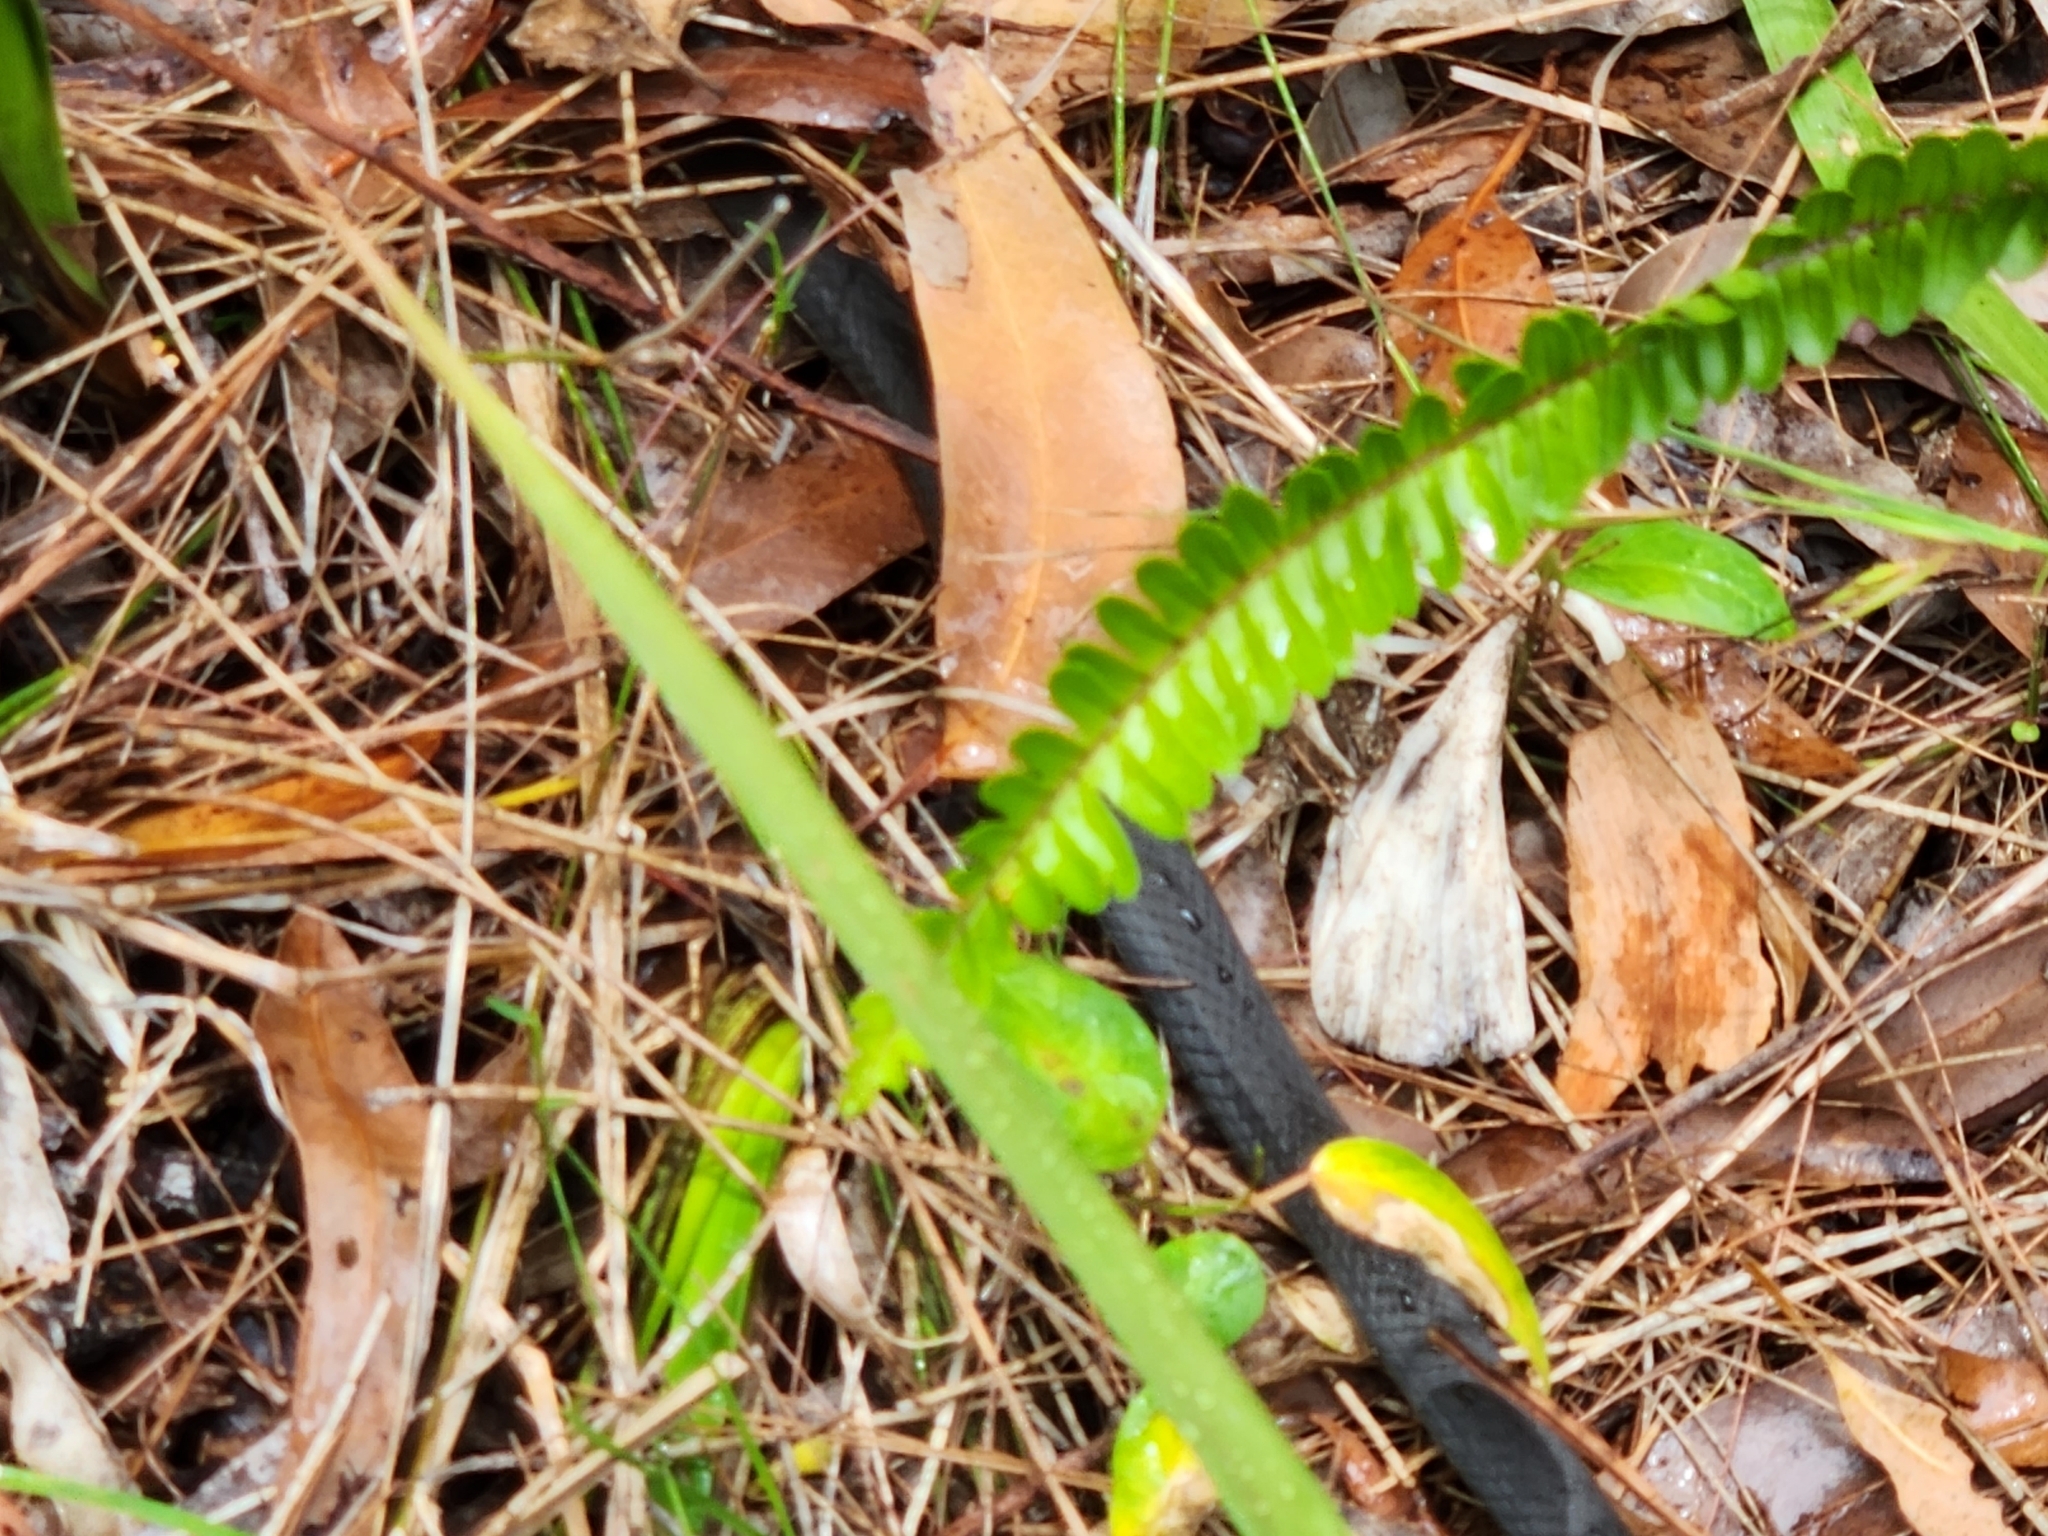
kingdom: Animalia
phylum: Chordata
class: Squamata
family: Elapidae
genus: Hemiaspis
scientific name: Hemiaspis signata
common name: Black-bellied swamp snake
